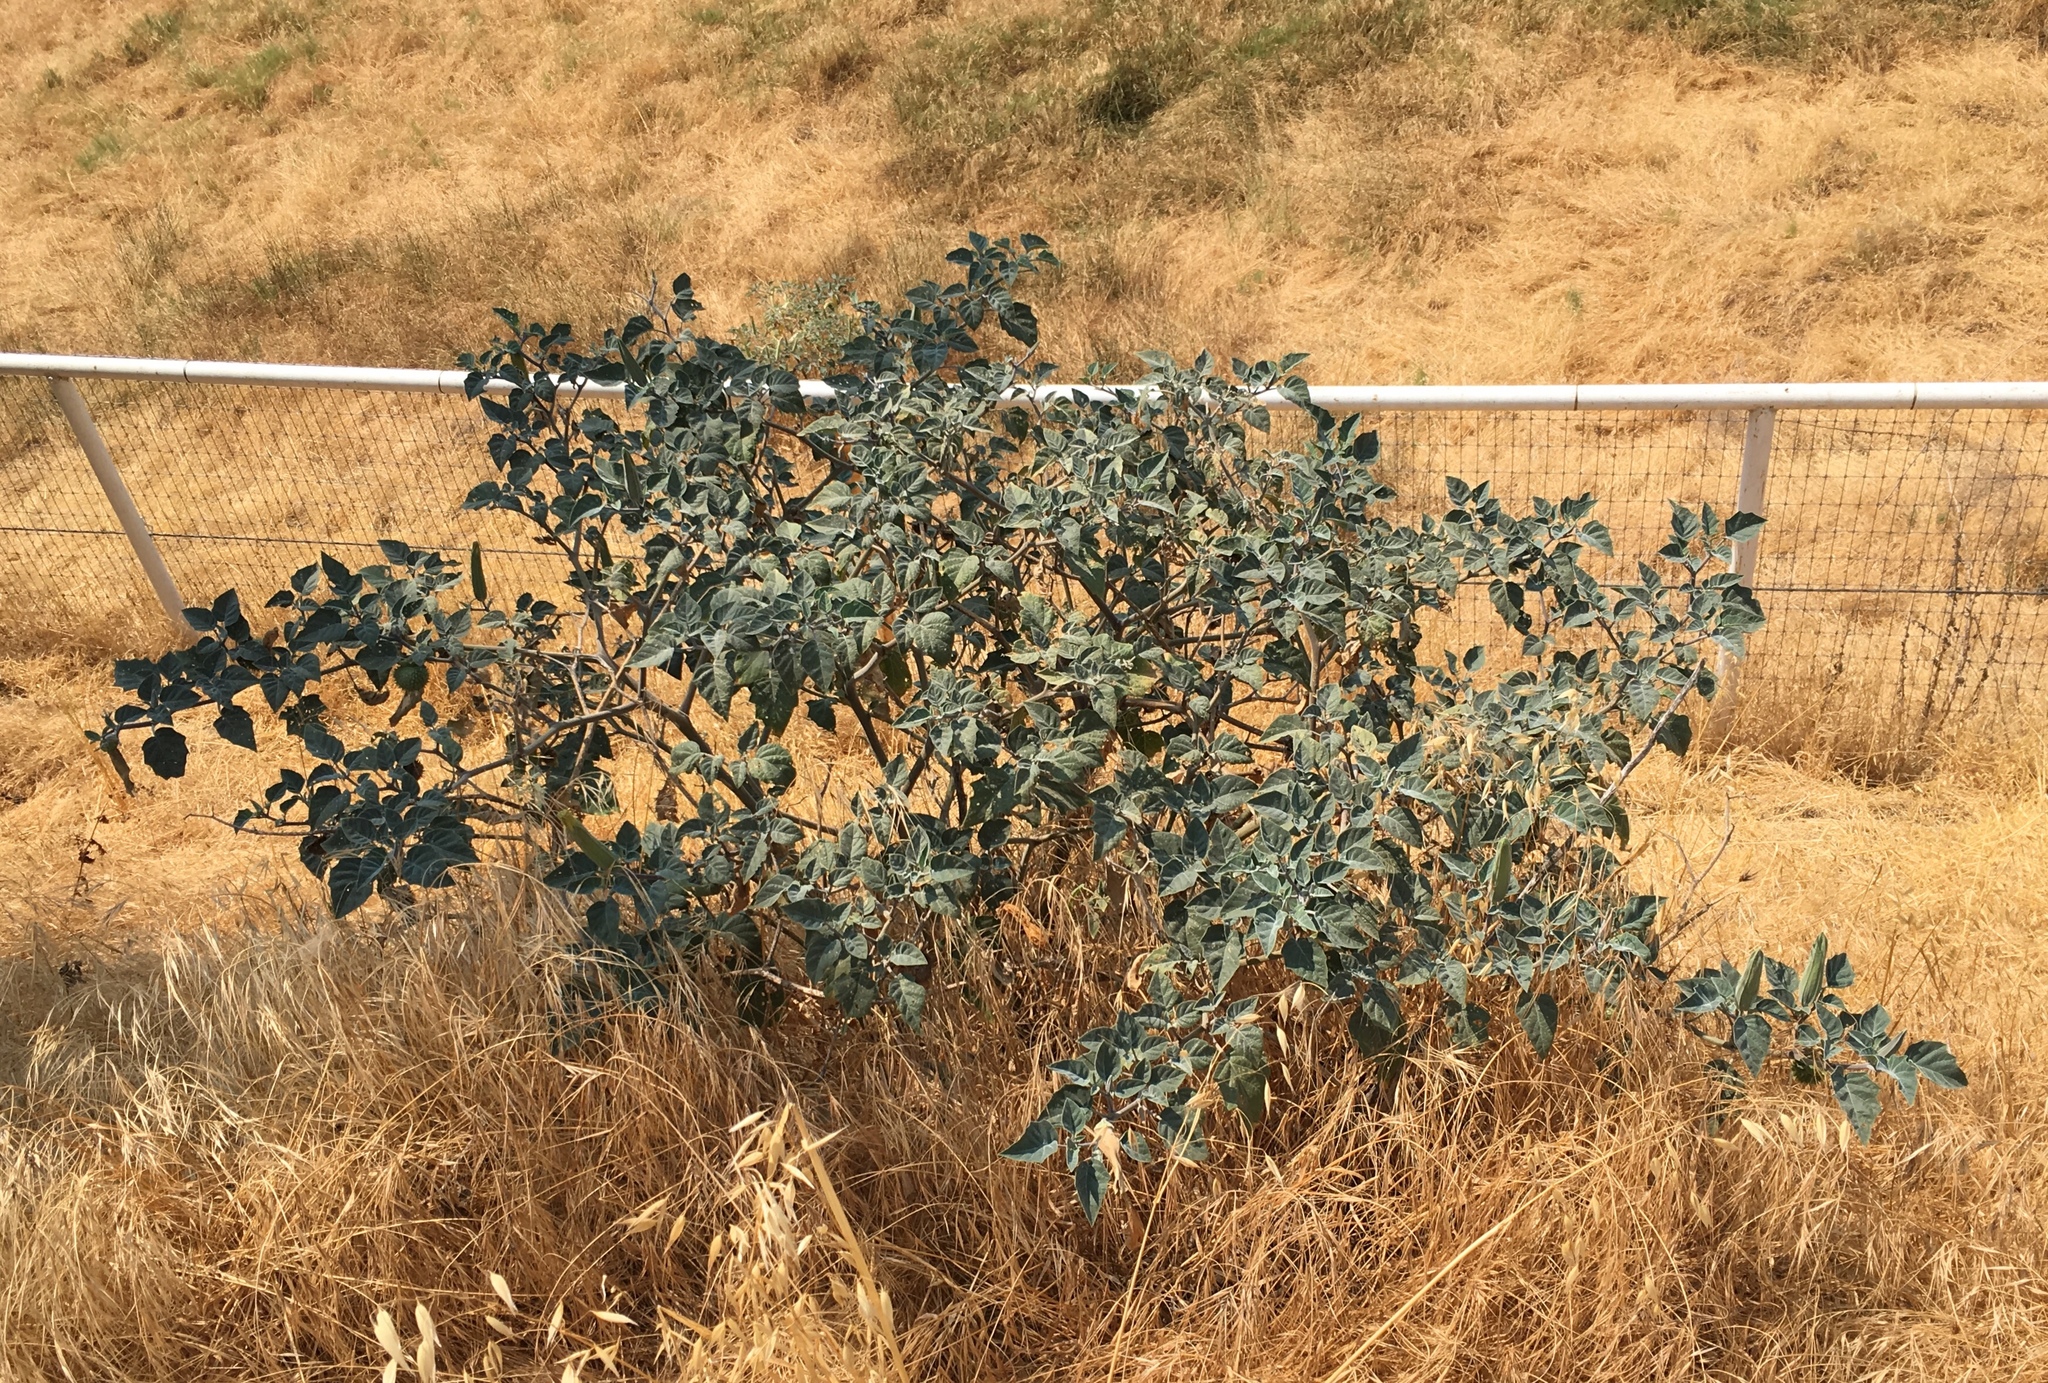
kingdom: Plantae
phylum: Tracheophyta
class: Magnoliopsida
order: Solanales
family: Solanaceae
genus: Datura
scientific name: Datura wrightii
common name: Sacred thorn-apple
